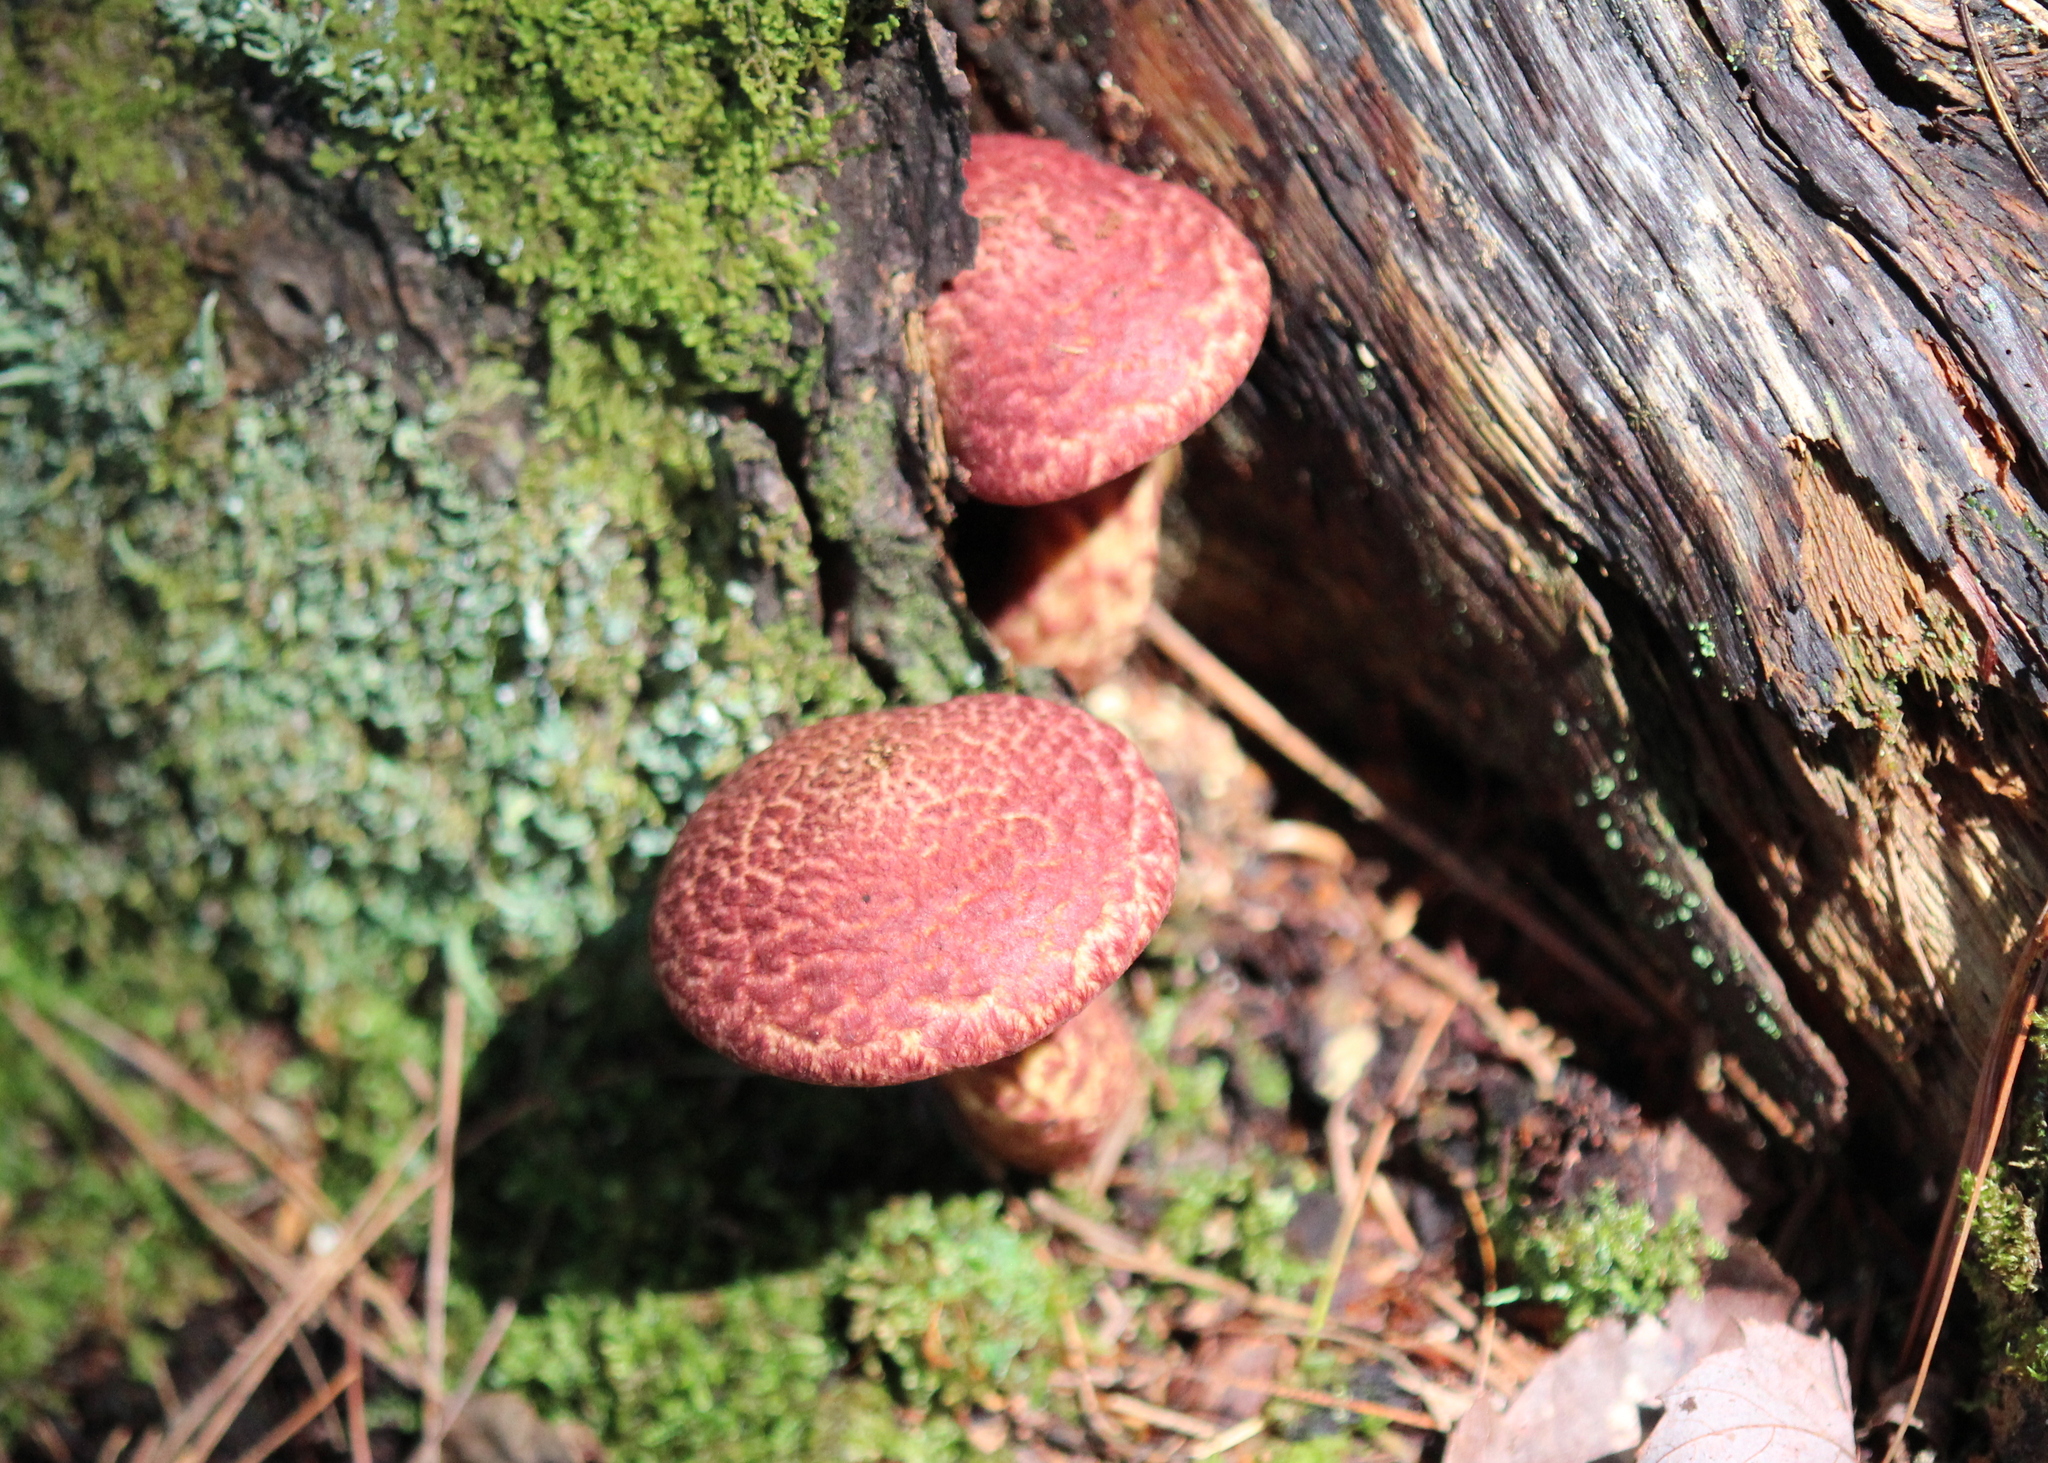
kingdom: Fungi
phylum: Basidiomycota
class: Agaricomycetes
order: Boletales
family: Suillaceae
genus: Suillus
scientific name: Suillus spraguei
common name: Painted suillus
